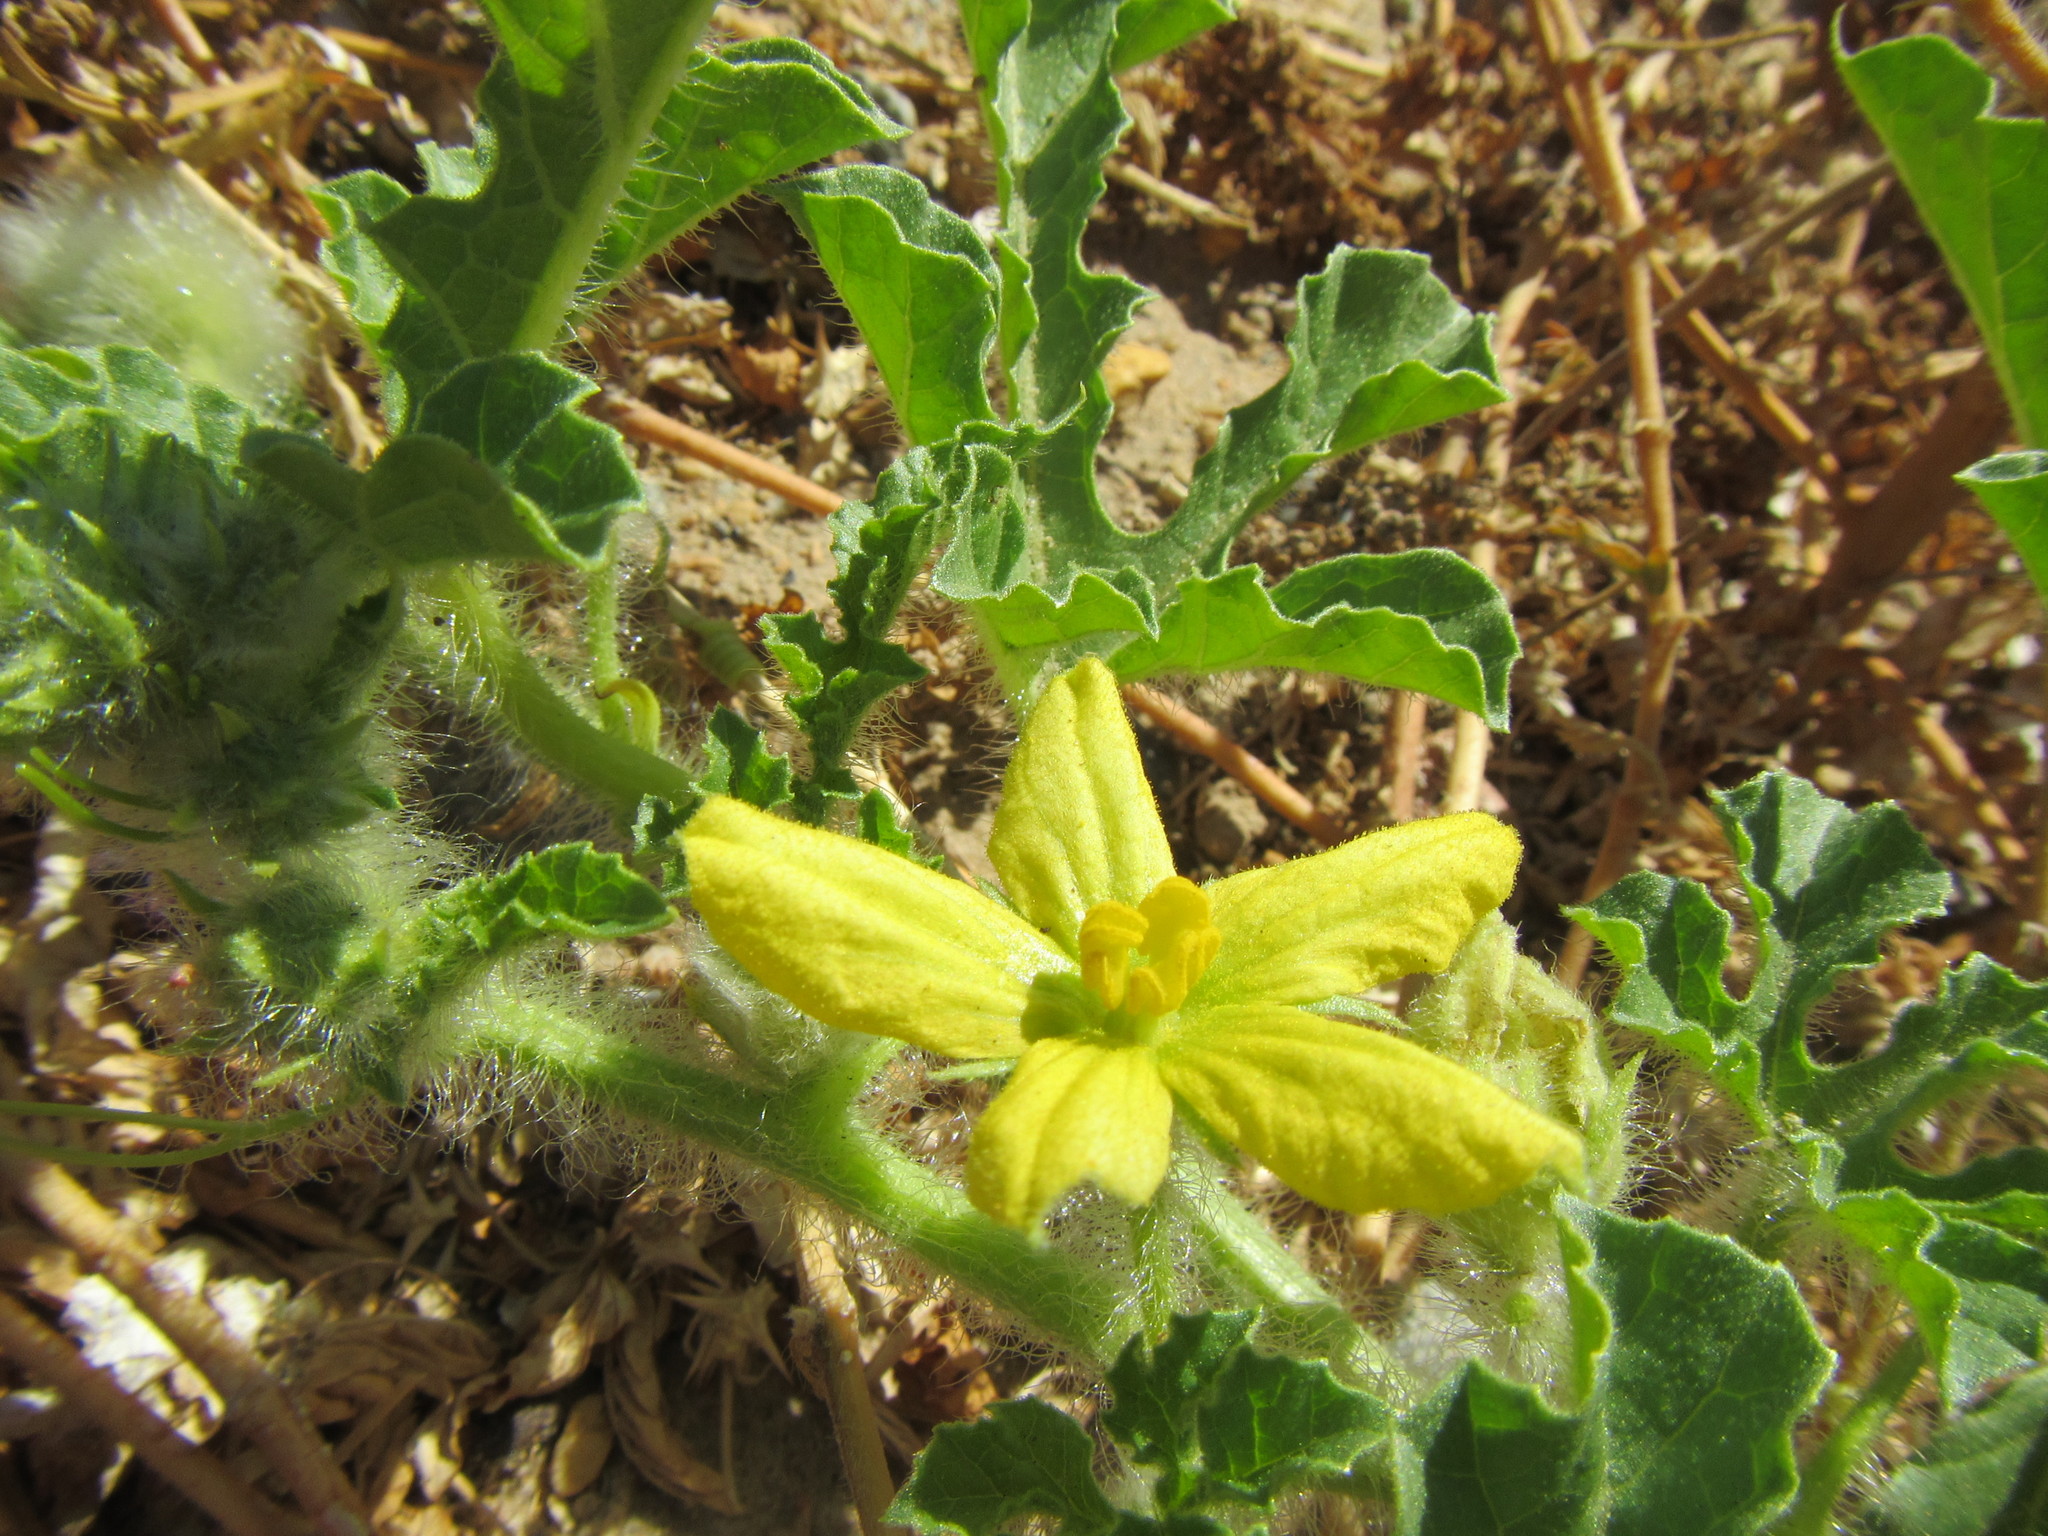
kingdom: Plantae
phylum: Tracheophyta
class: Magnoliopsida
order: Cucurbitales
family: Cucurbitaceae
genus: Citrullus
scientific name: Citrullus amarus
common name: Fodder-melon
